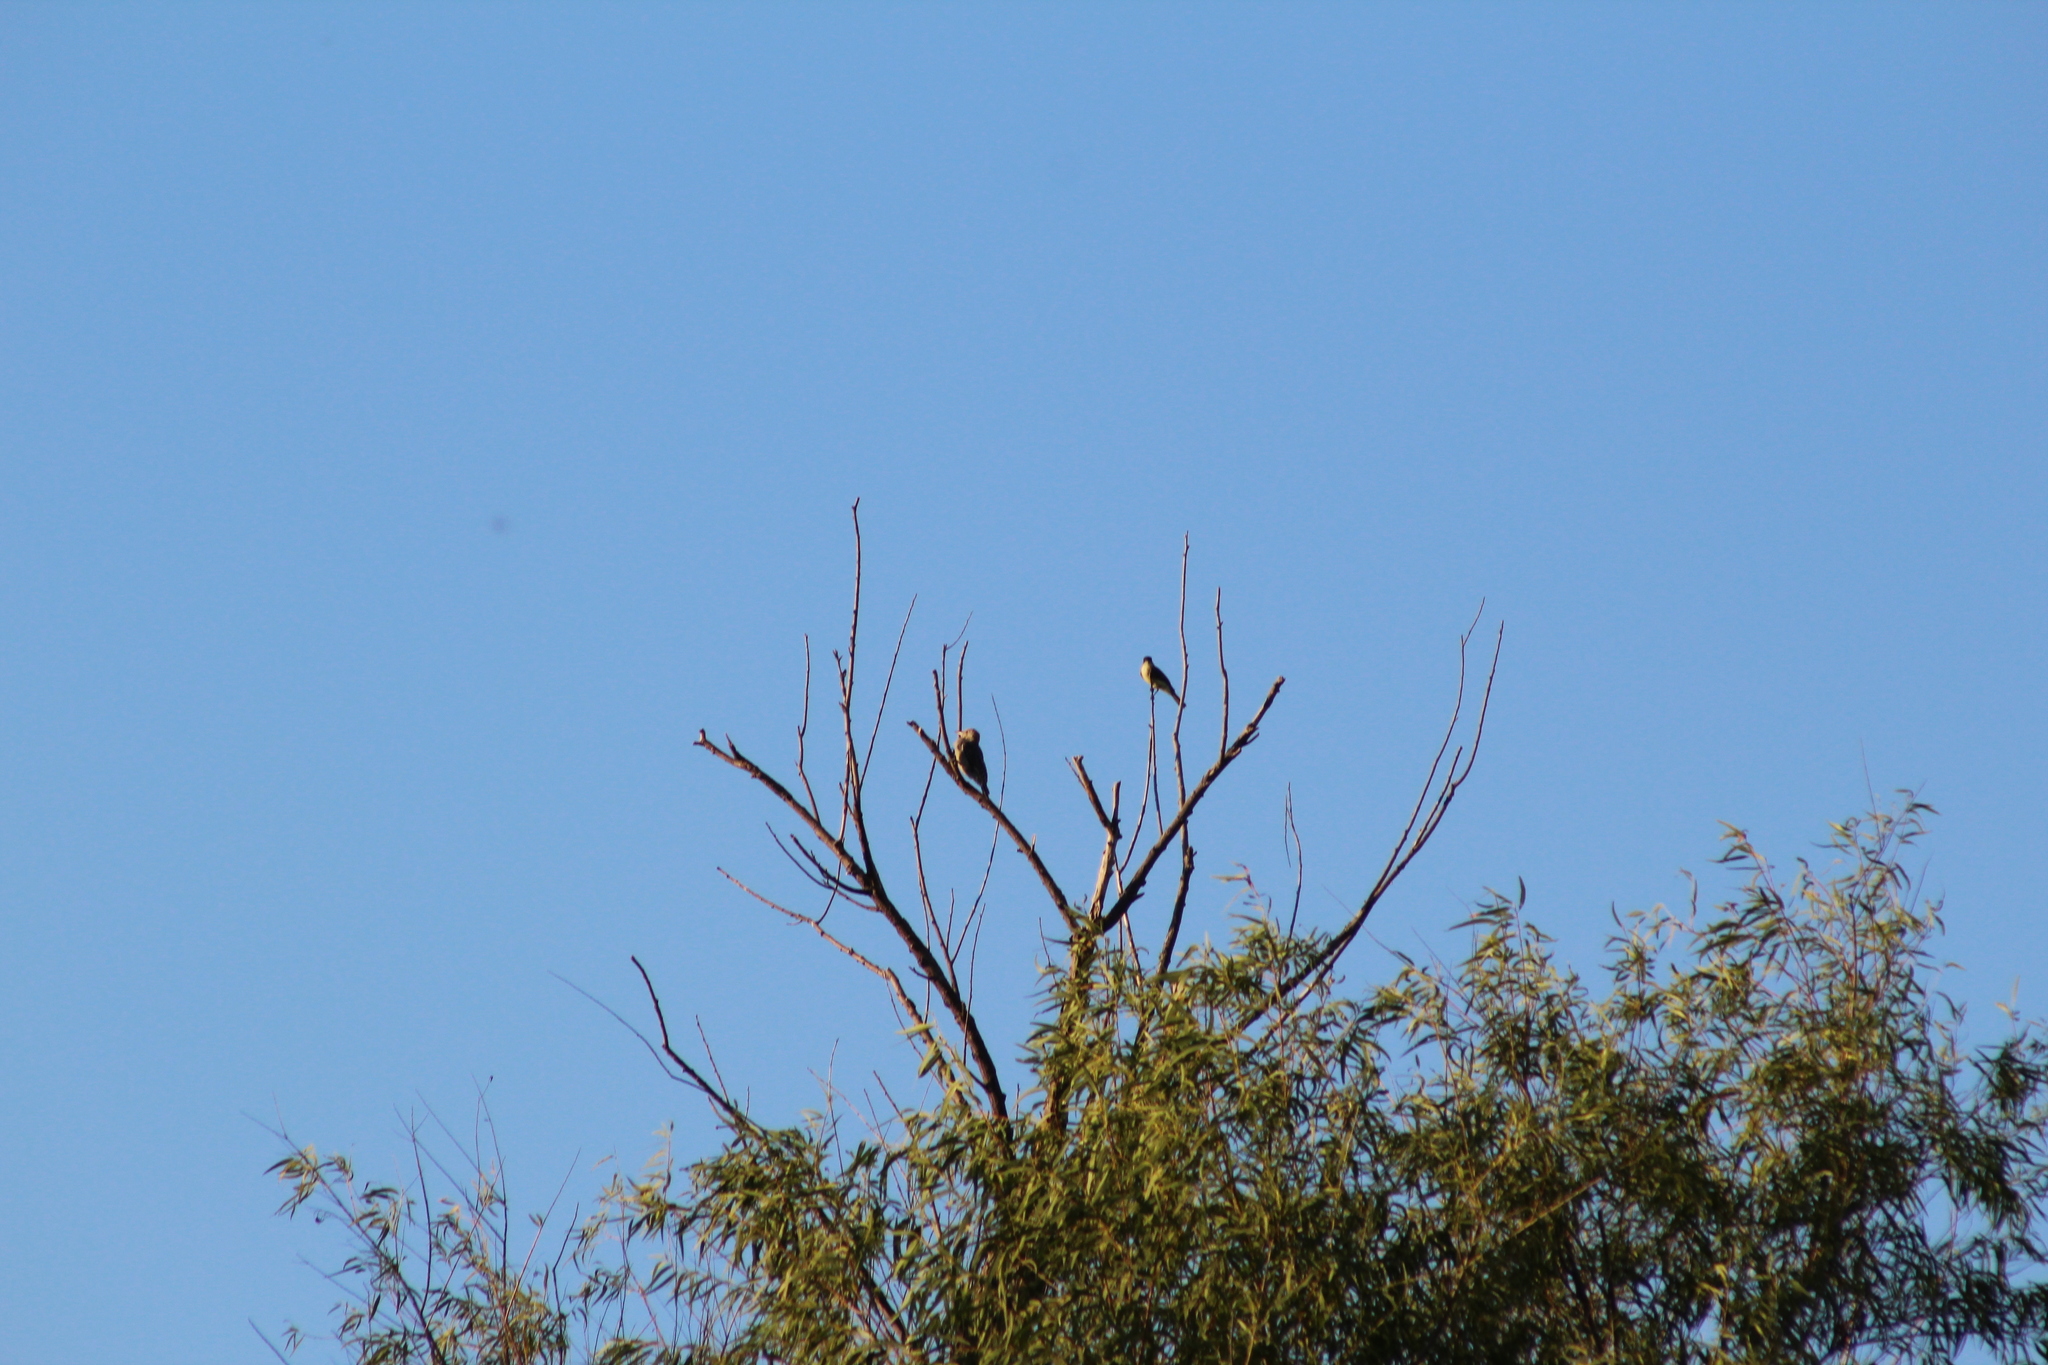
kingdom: Animalia
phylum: Chordata
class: Aves
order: Passeriformes
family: Tyrannidae
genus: Sayornis
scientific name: Sayornis phoebe
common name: Eastern phoebe
